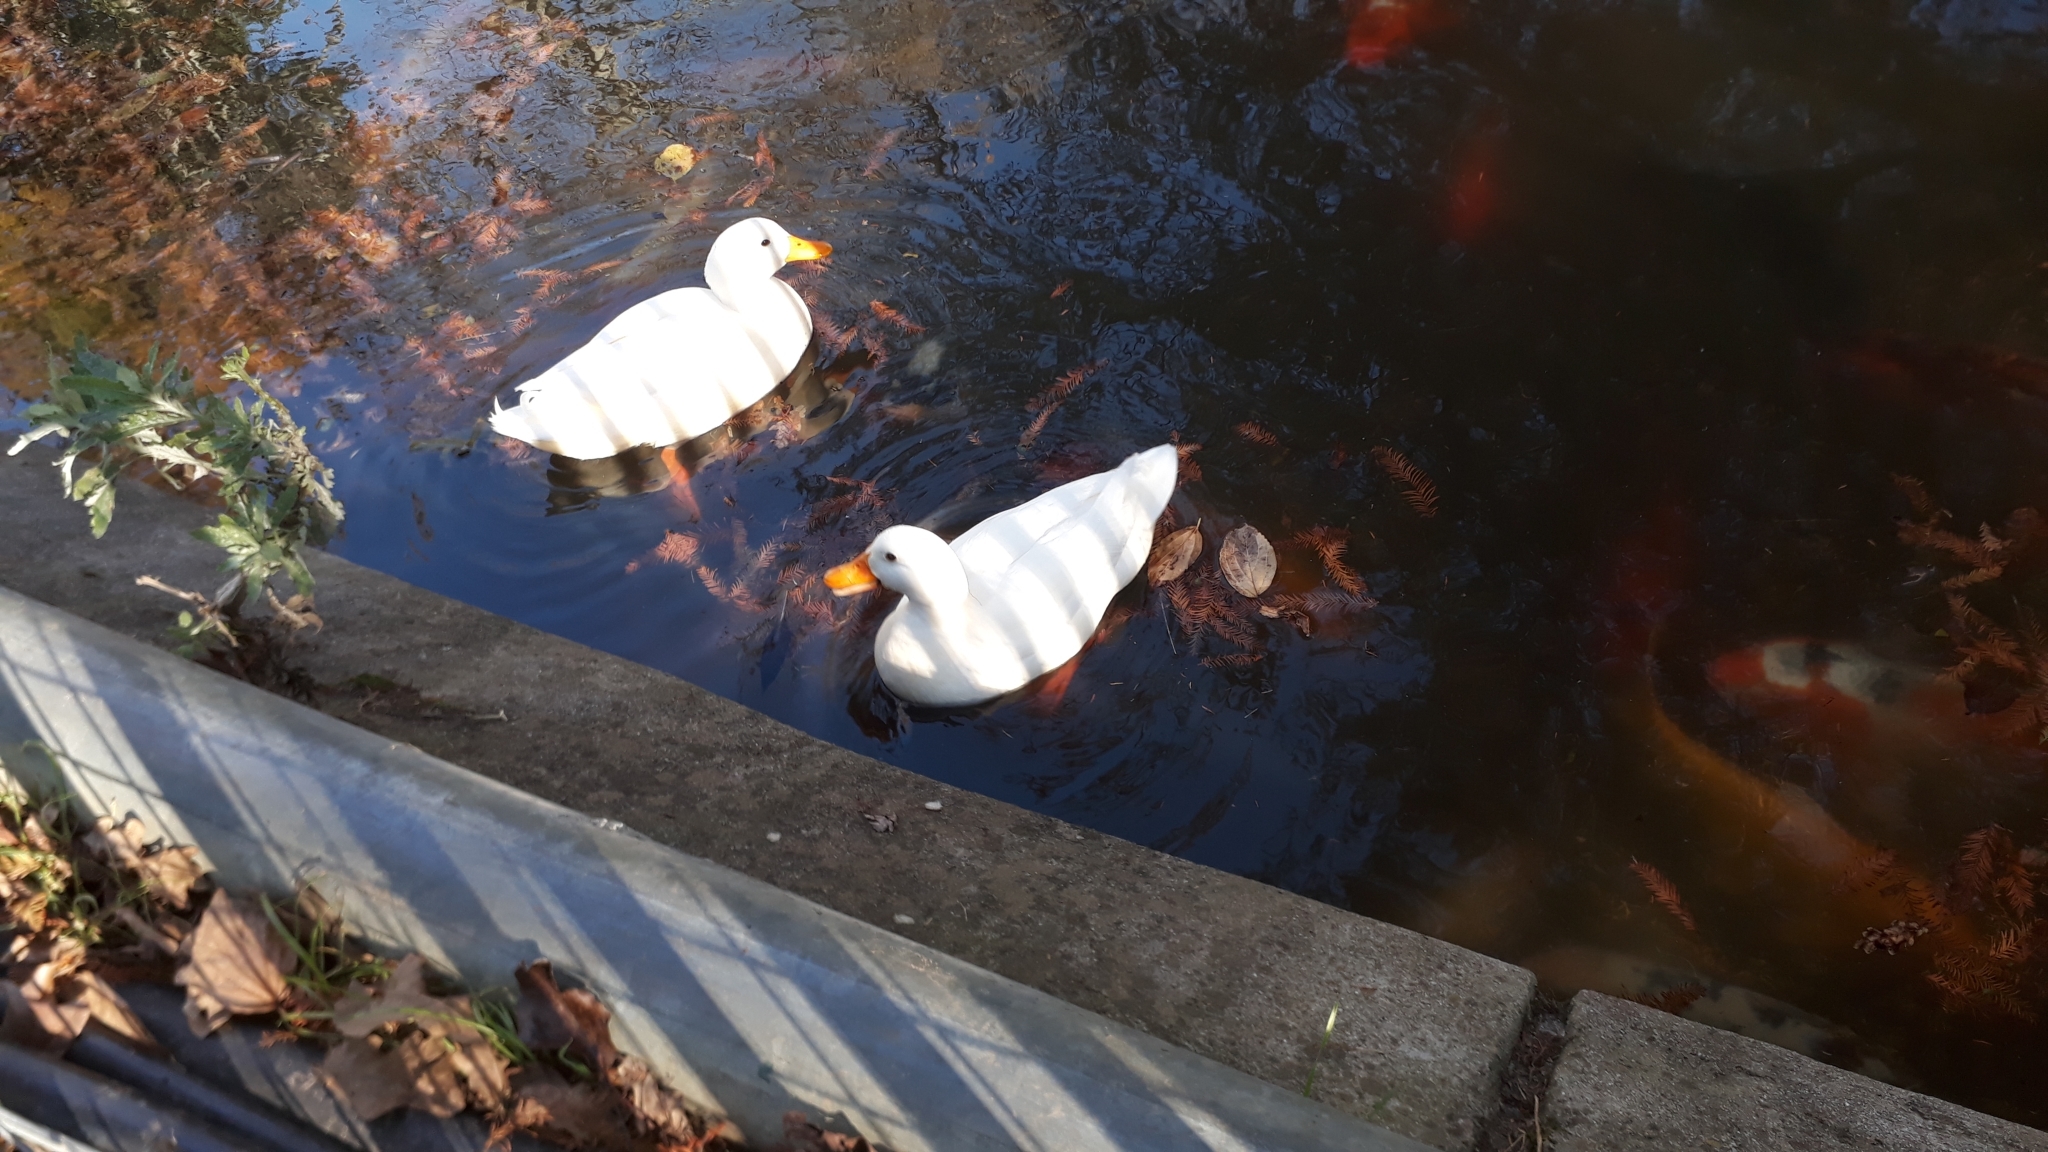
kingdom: Animalia
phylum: Chordata
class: Aves
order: Anseriformes
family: Anatidae
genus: Anas
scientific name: Anas platyrhynchos
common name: Mallard
